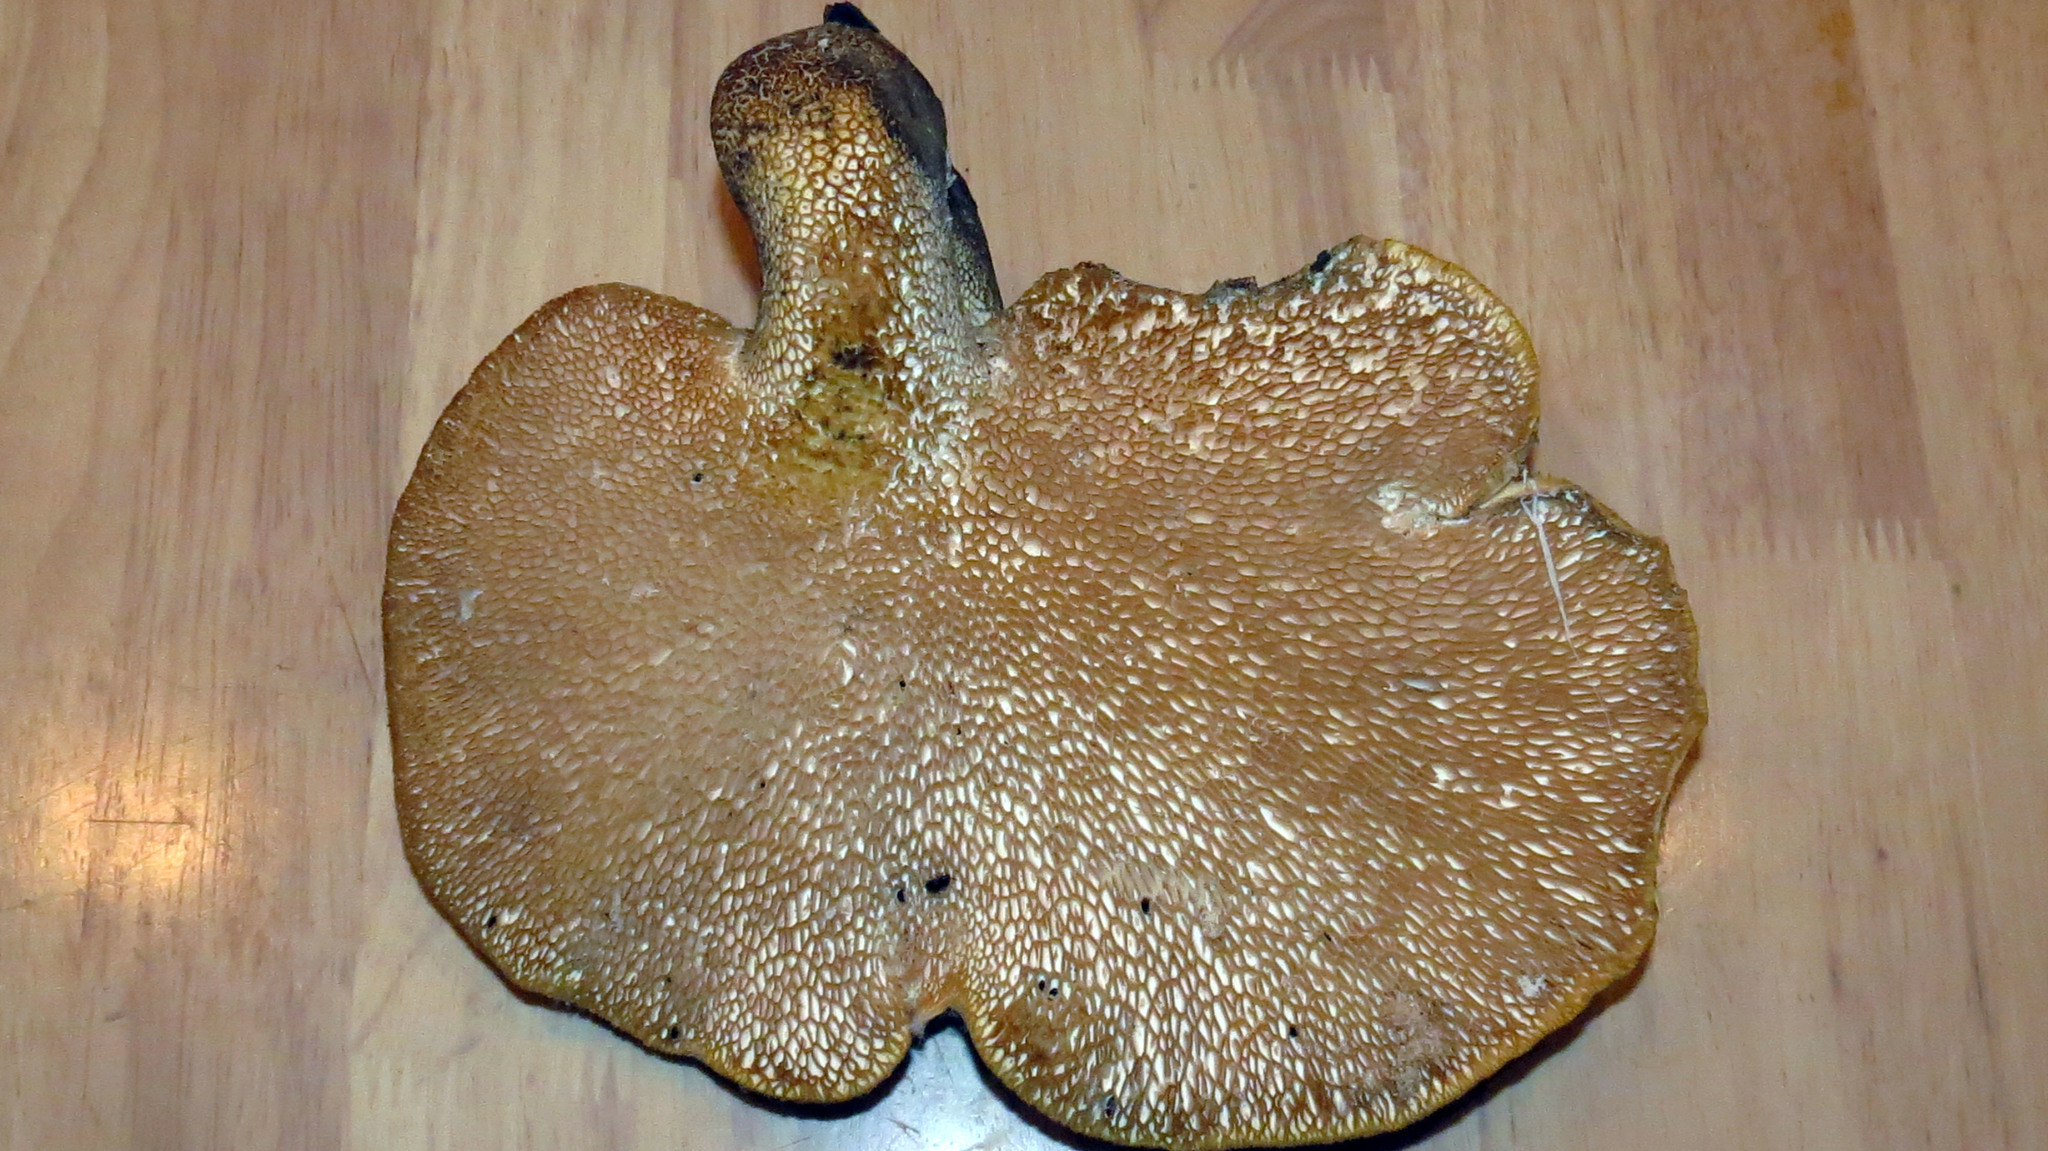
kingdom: Fungi
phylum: Basidiomycota
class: Agaricomycetes
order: Polyporales
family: Polyporaceae
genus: Cerioporus
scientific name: Cerioporus squamosus
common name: Dryad's saddle
